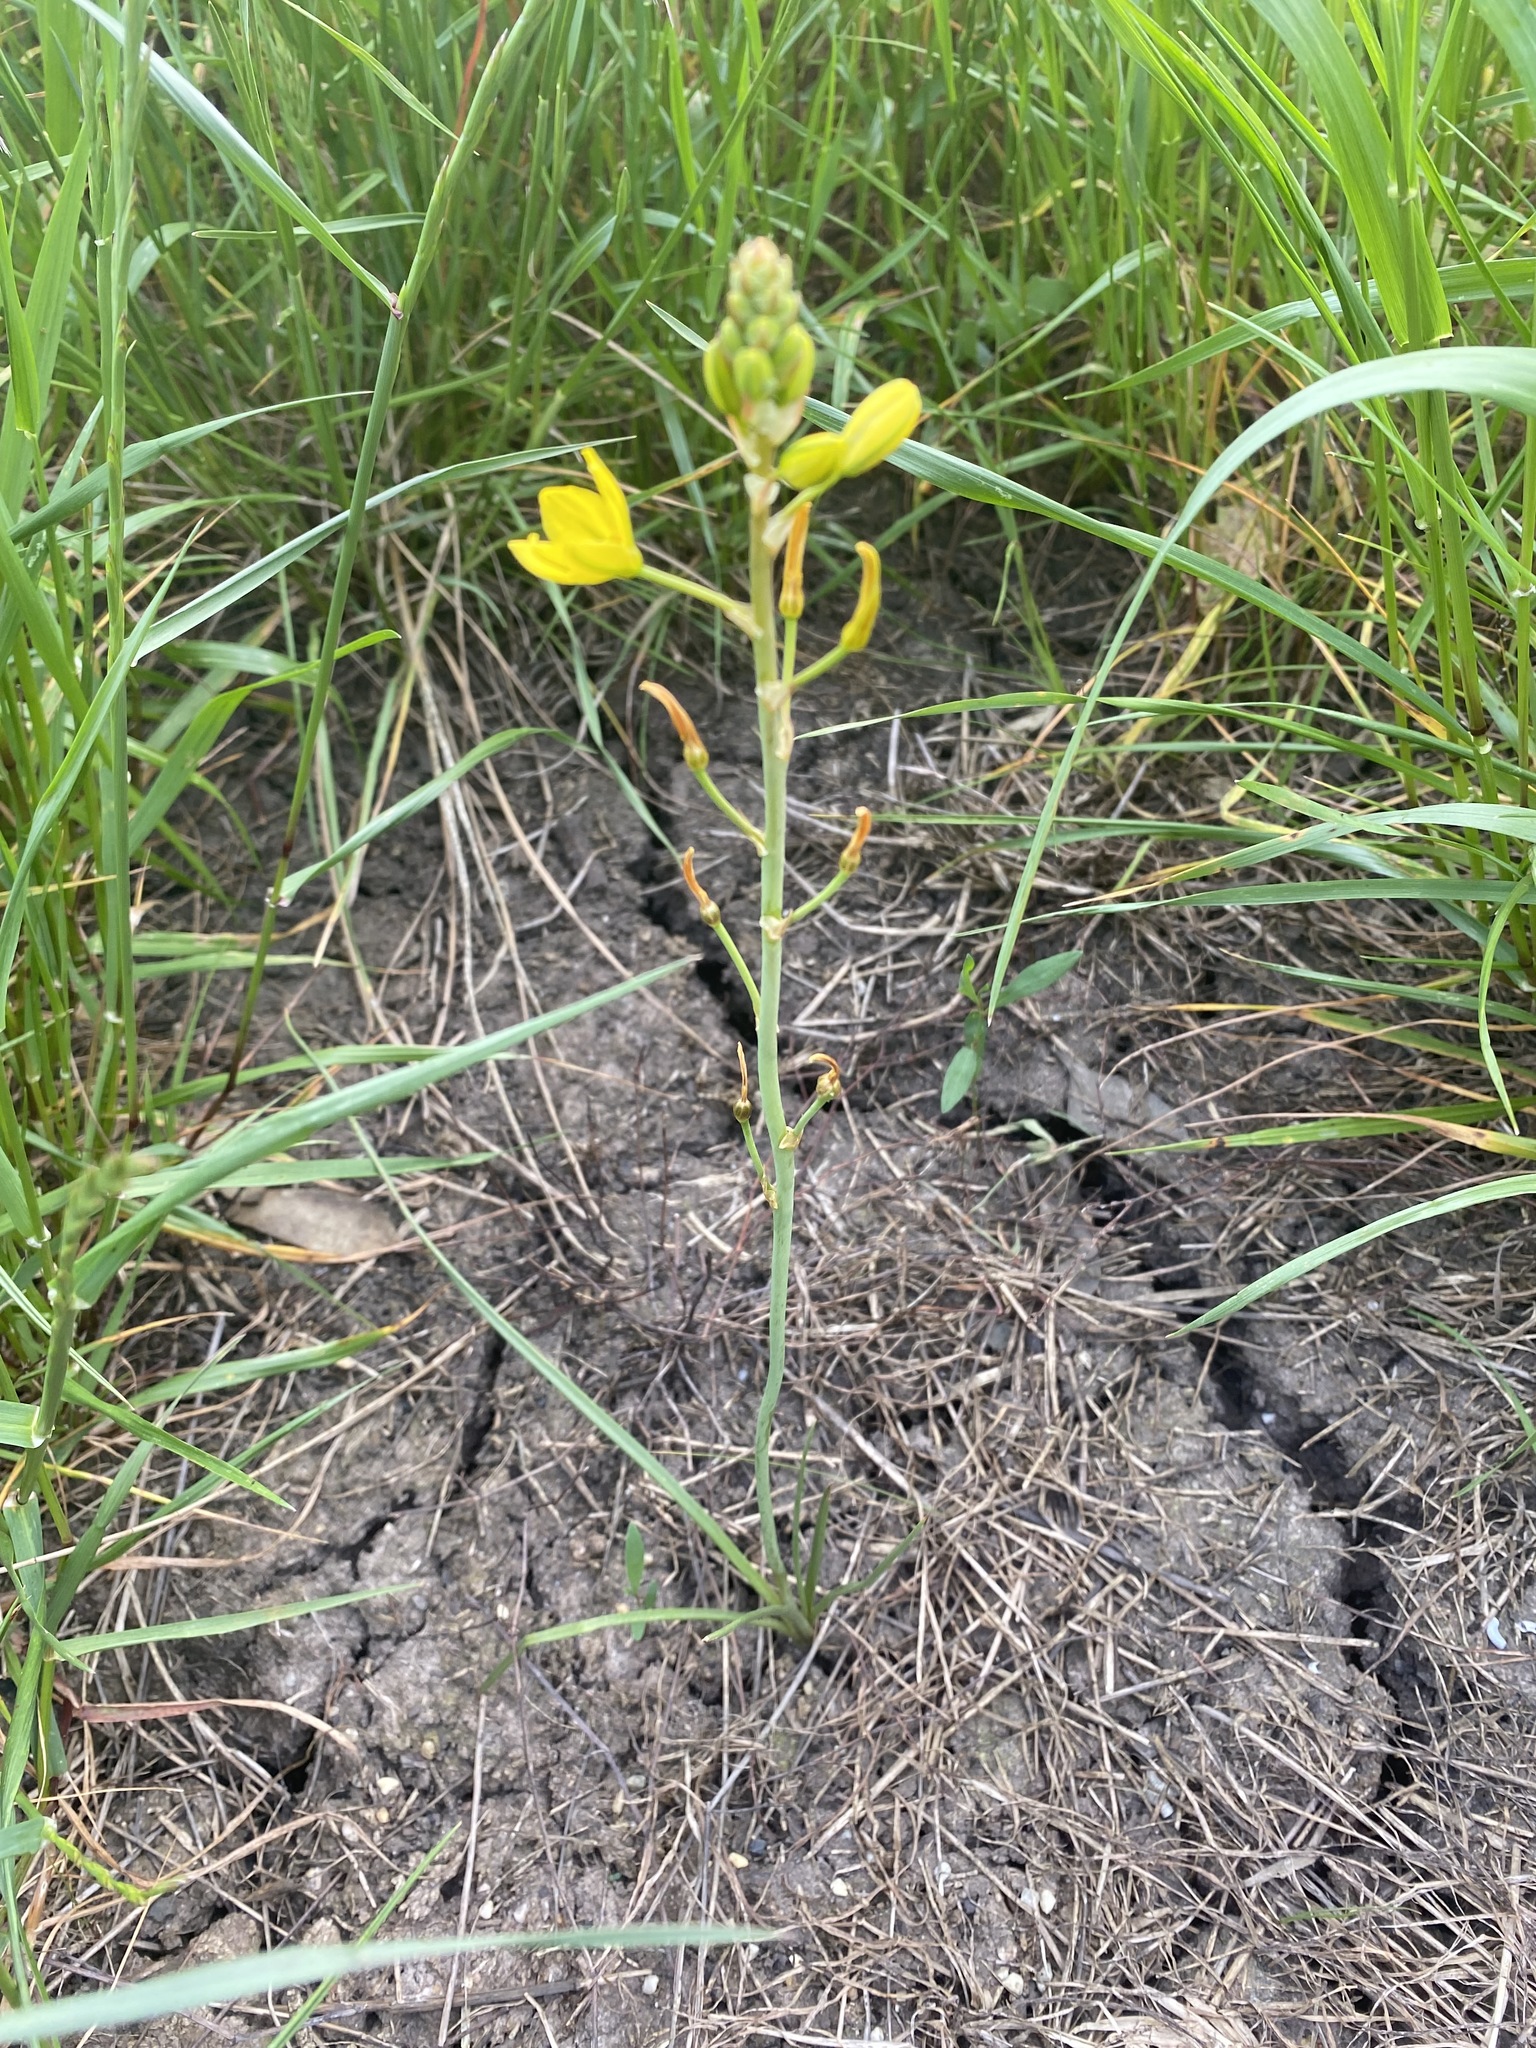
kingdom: Plantae
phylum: Tracheophyta
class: Liliopsida
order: Asparagales
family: Asphodelaceae
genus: Bulbine
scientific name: Bulbine bulbosa
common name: Golden-lily
